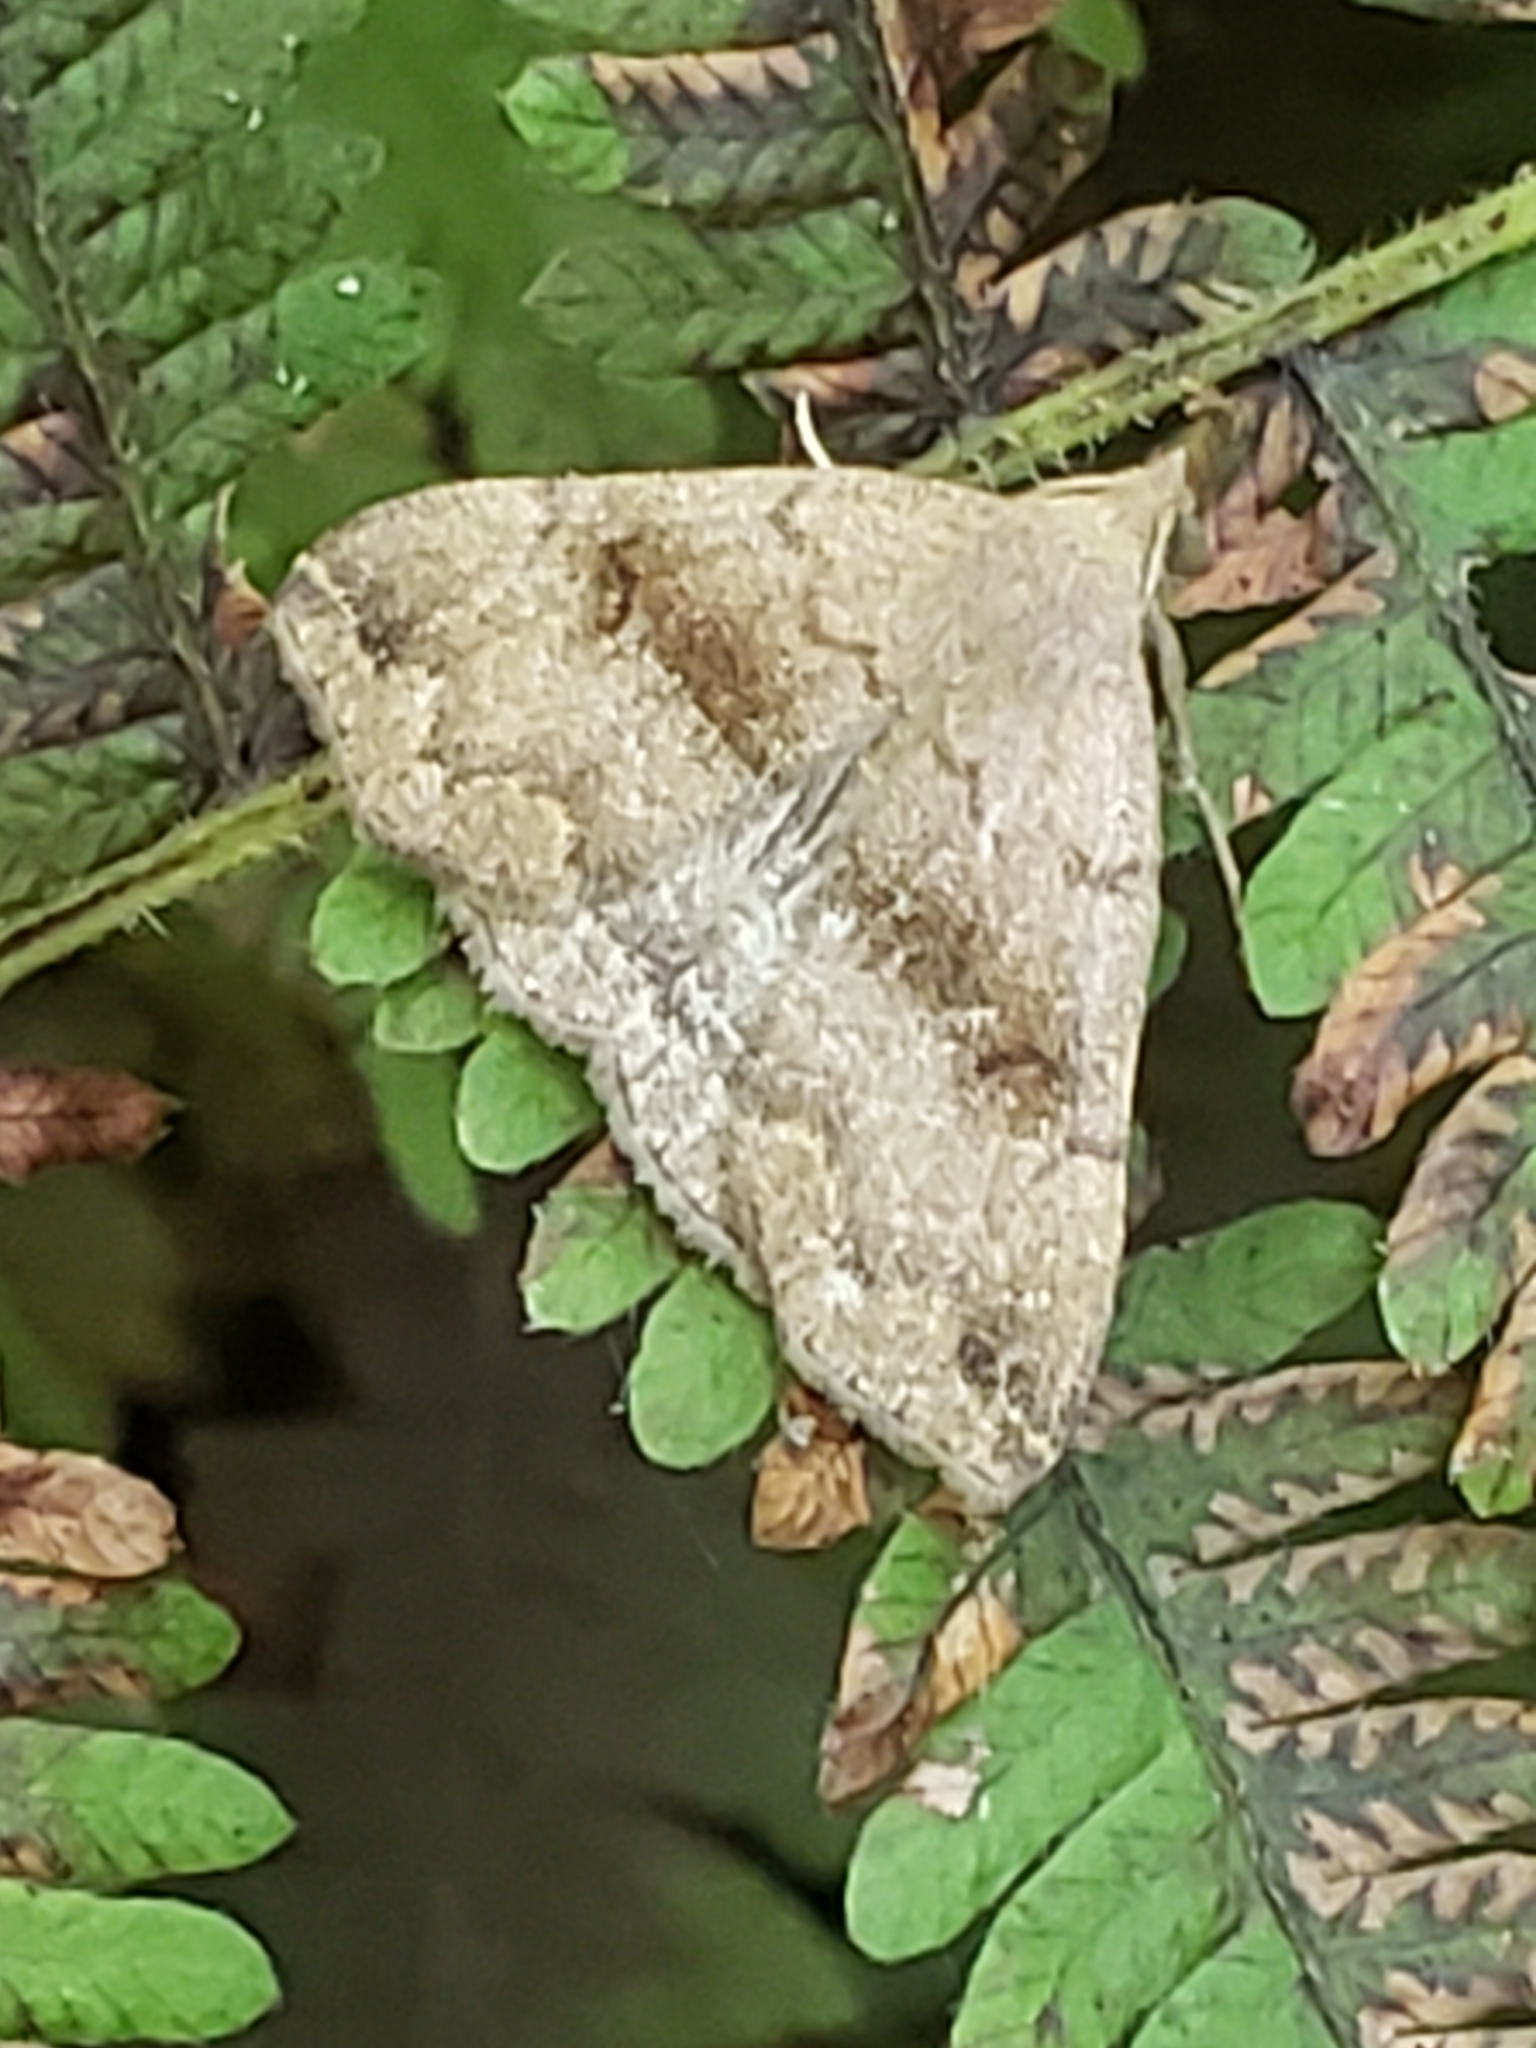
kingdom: Animalia
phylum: Arthropoda
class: Insecta
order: Lepidoptera
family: Erebidae
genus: Phalaenostola
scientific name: Phalaenostola eumelusalis
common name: Dark phalaenostola moth
